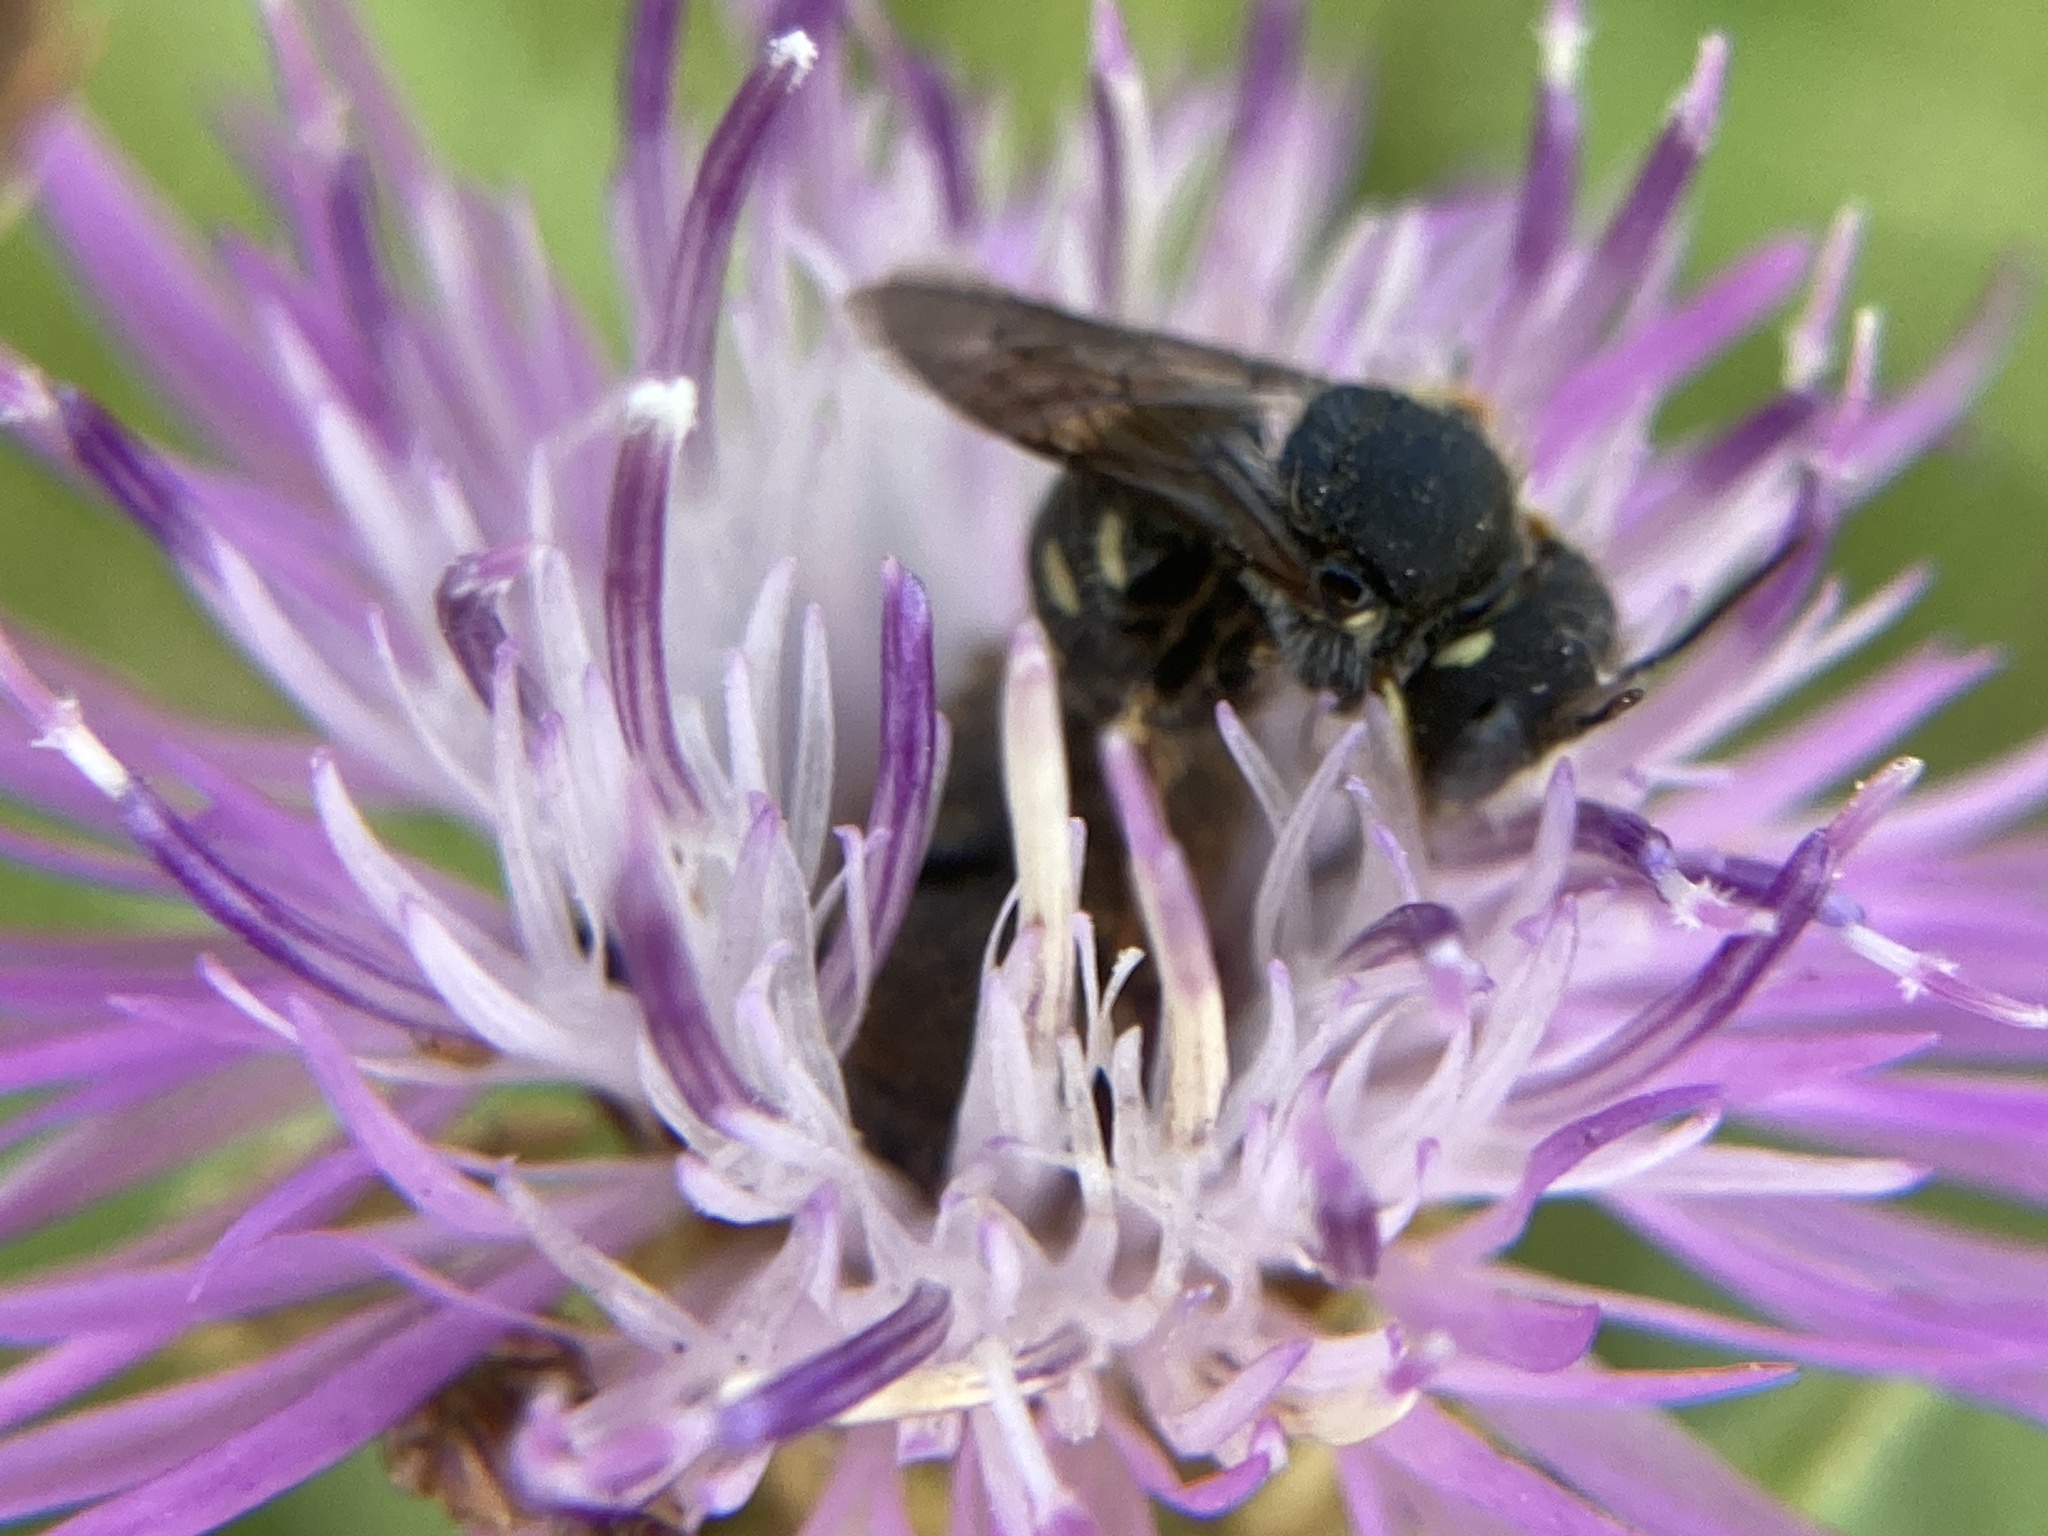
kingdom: Animalia
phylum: Arthropoda
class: Insecta
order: Hymenoptera
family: Megachilidae
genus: Pseudoanthidium
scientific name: Pseudoanthidium nanum
